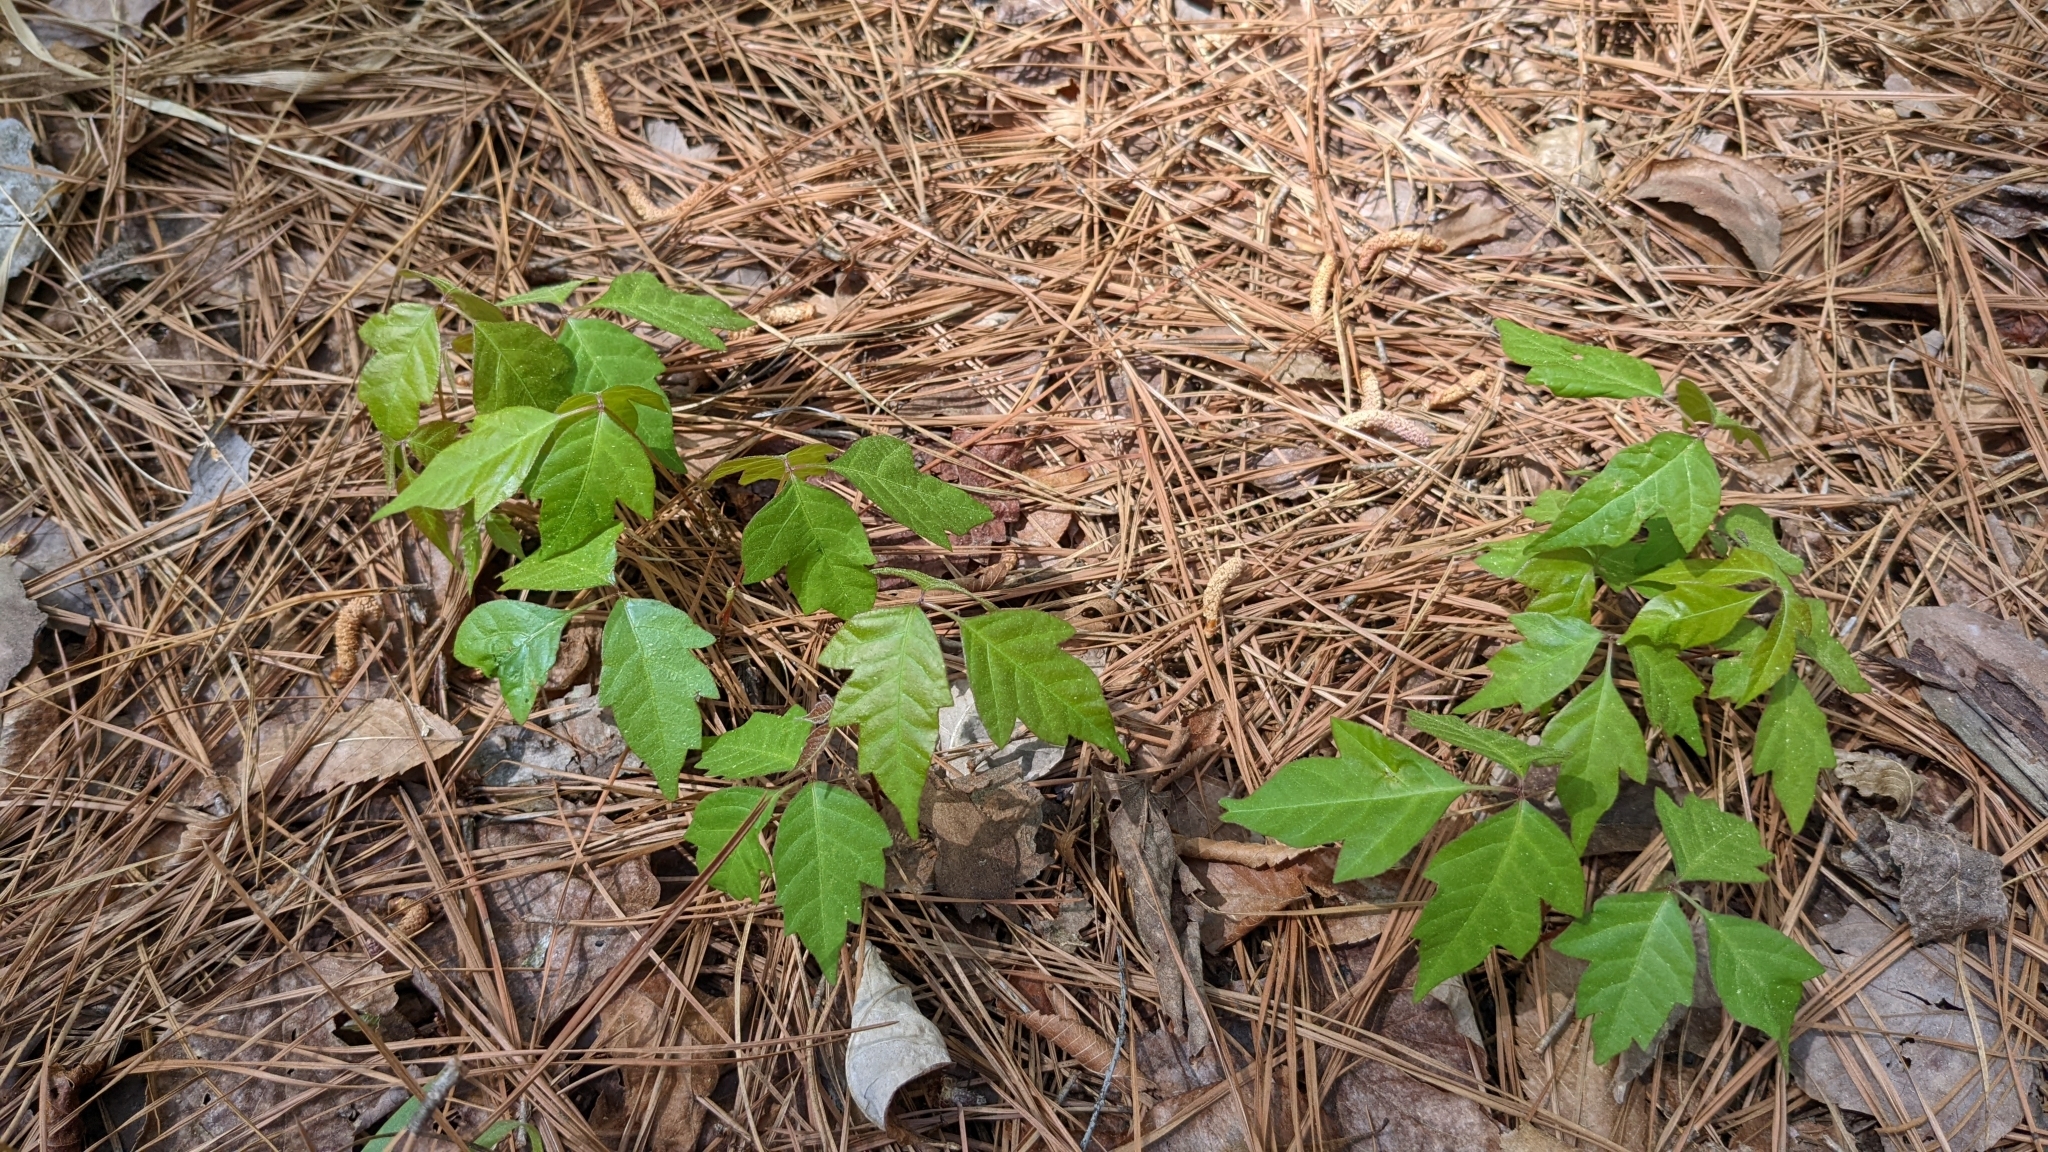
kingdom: Plantae
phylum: Tracheophyta
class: Magnoliopsida
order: Sapindales
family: Anacardiaceae
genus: Toxicodendron
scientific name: Toxicodendron radicans
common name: Poison ivy
